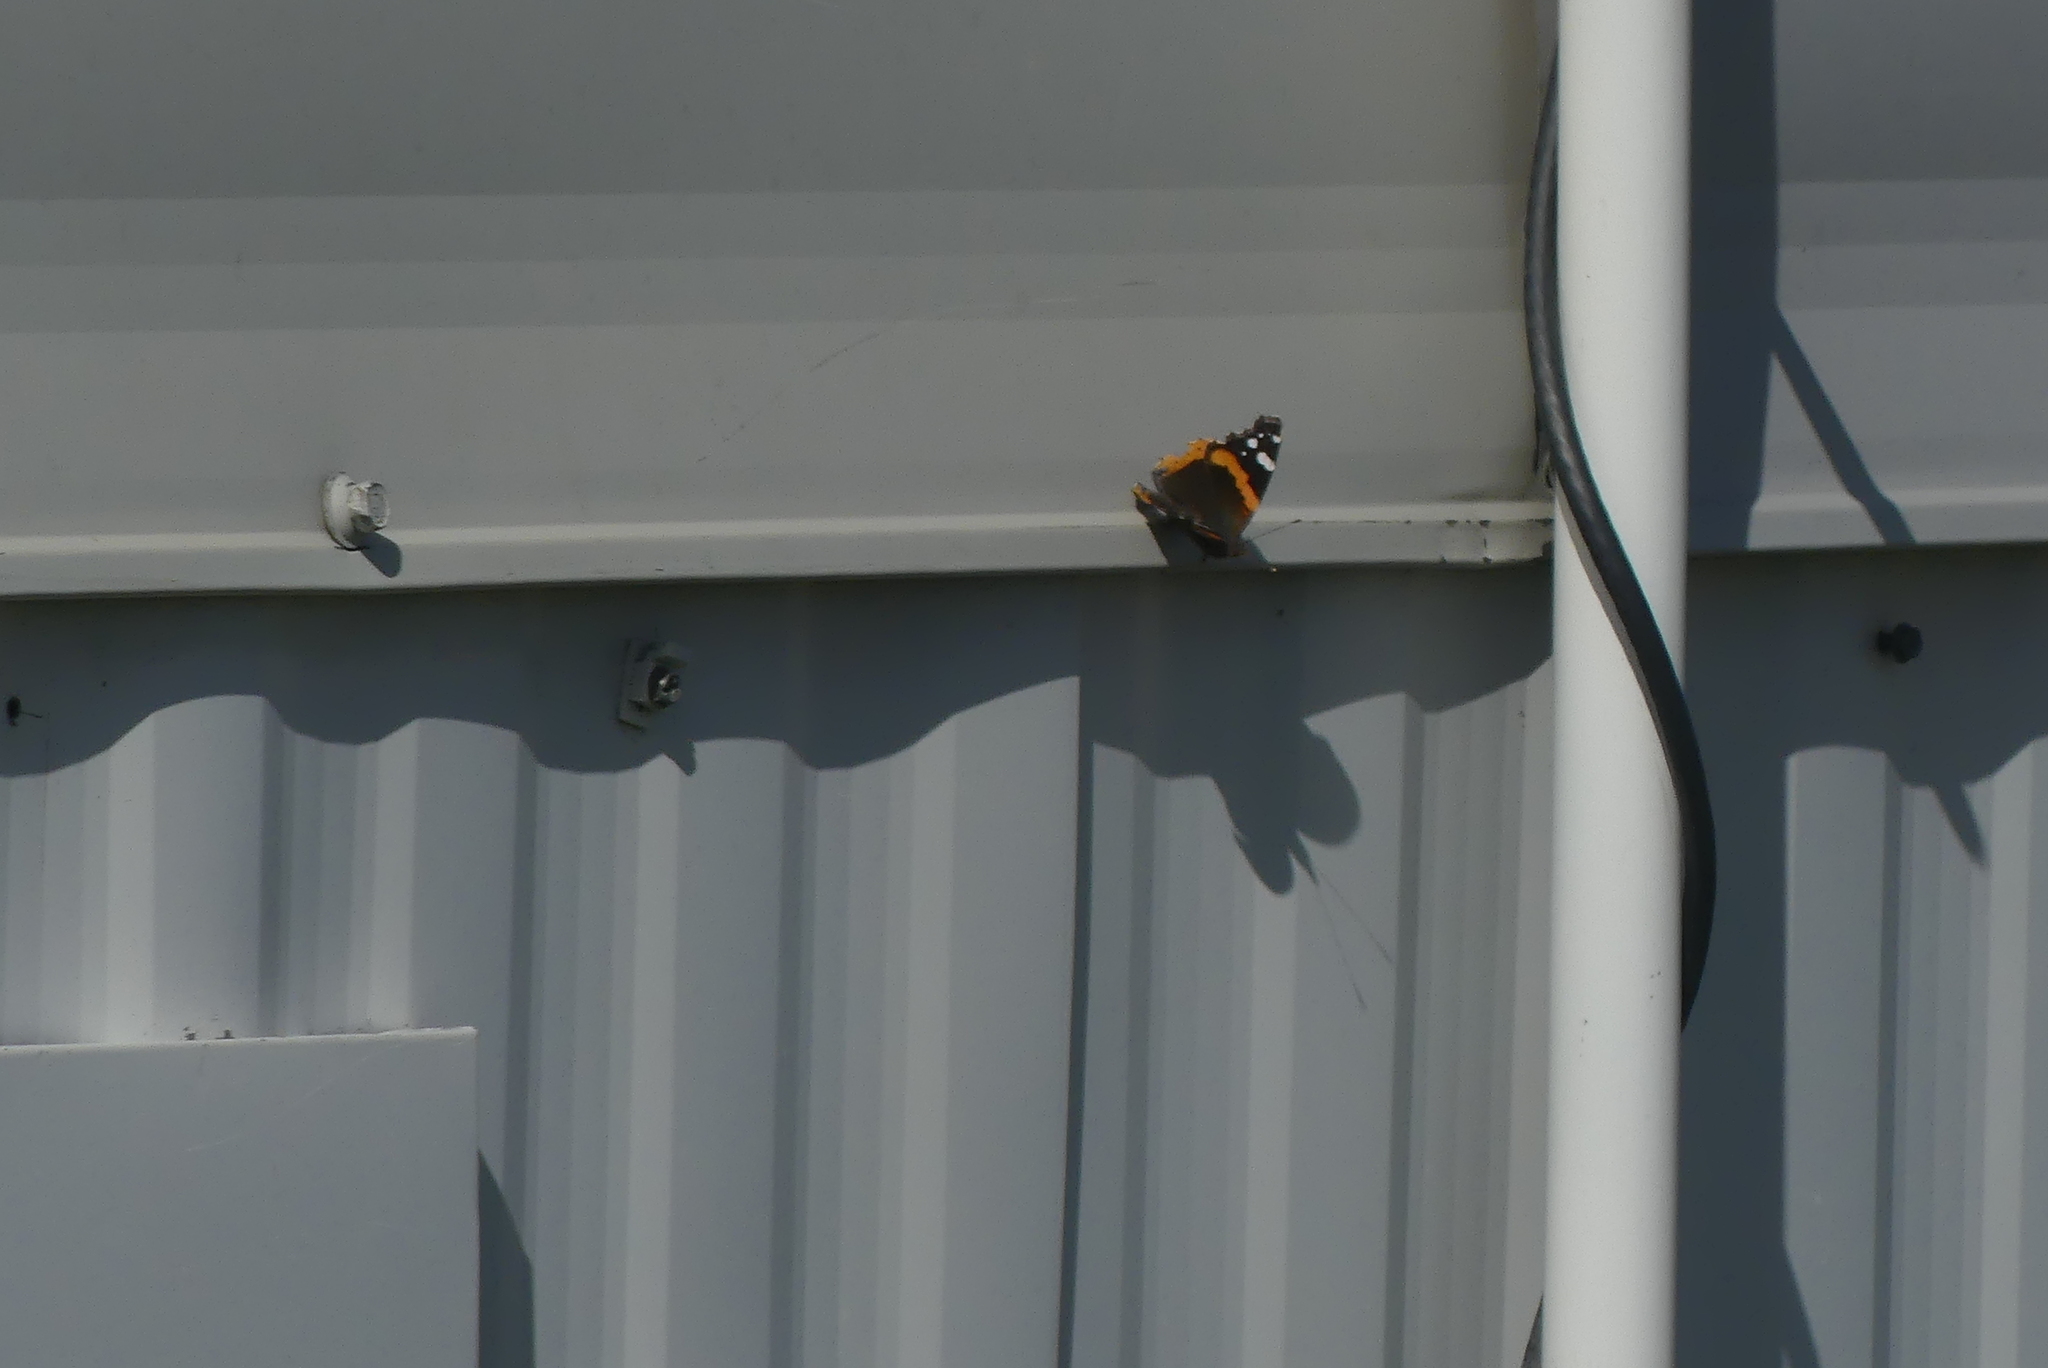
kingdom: Animalia
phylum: Arthropoda
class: Insecta
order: Lepidoptera
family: Nymphalidae
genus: Vanessa
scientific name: Vanessa atalanta
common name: Red admiral
